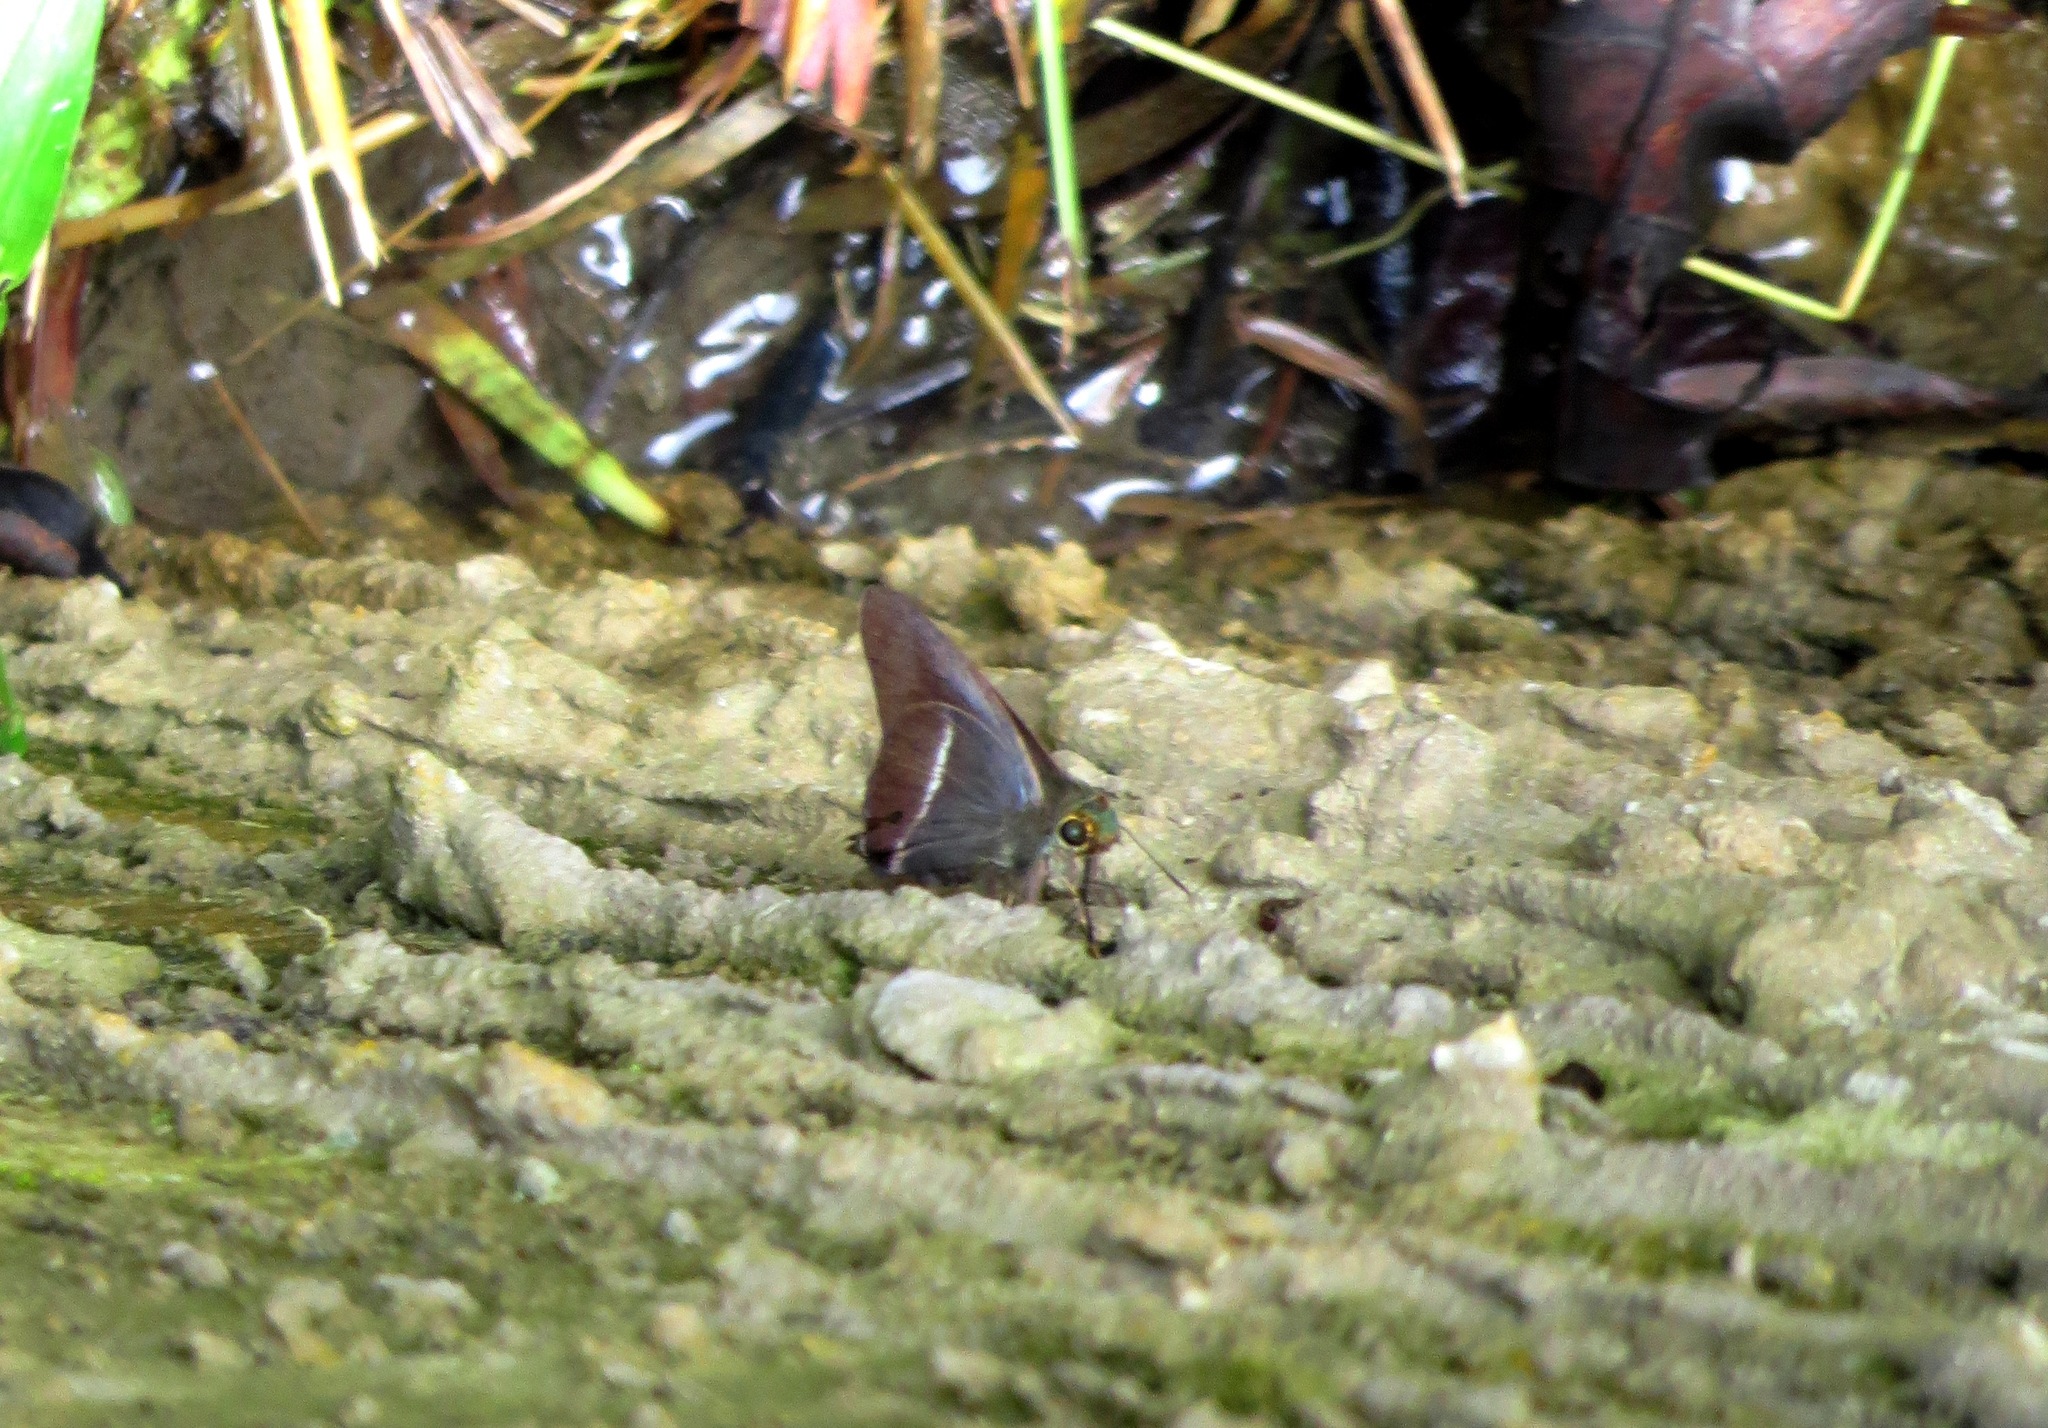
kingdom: Animalia
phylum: Arthropoda
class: Insecta
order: Lepidoptera
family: Hesperiidae
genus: Hasora
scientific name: Hasora chromus
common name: Common banded awl
